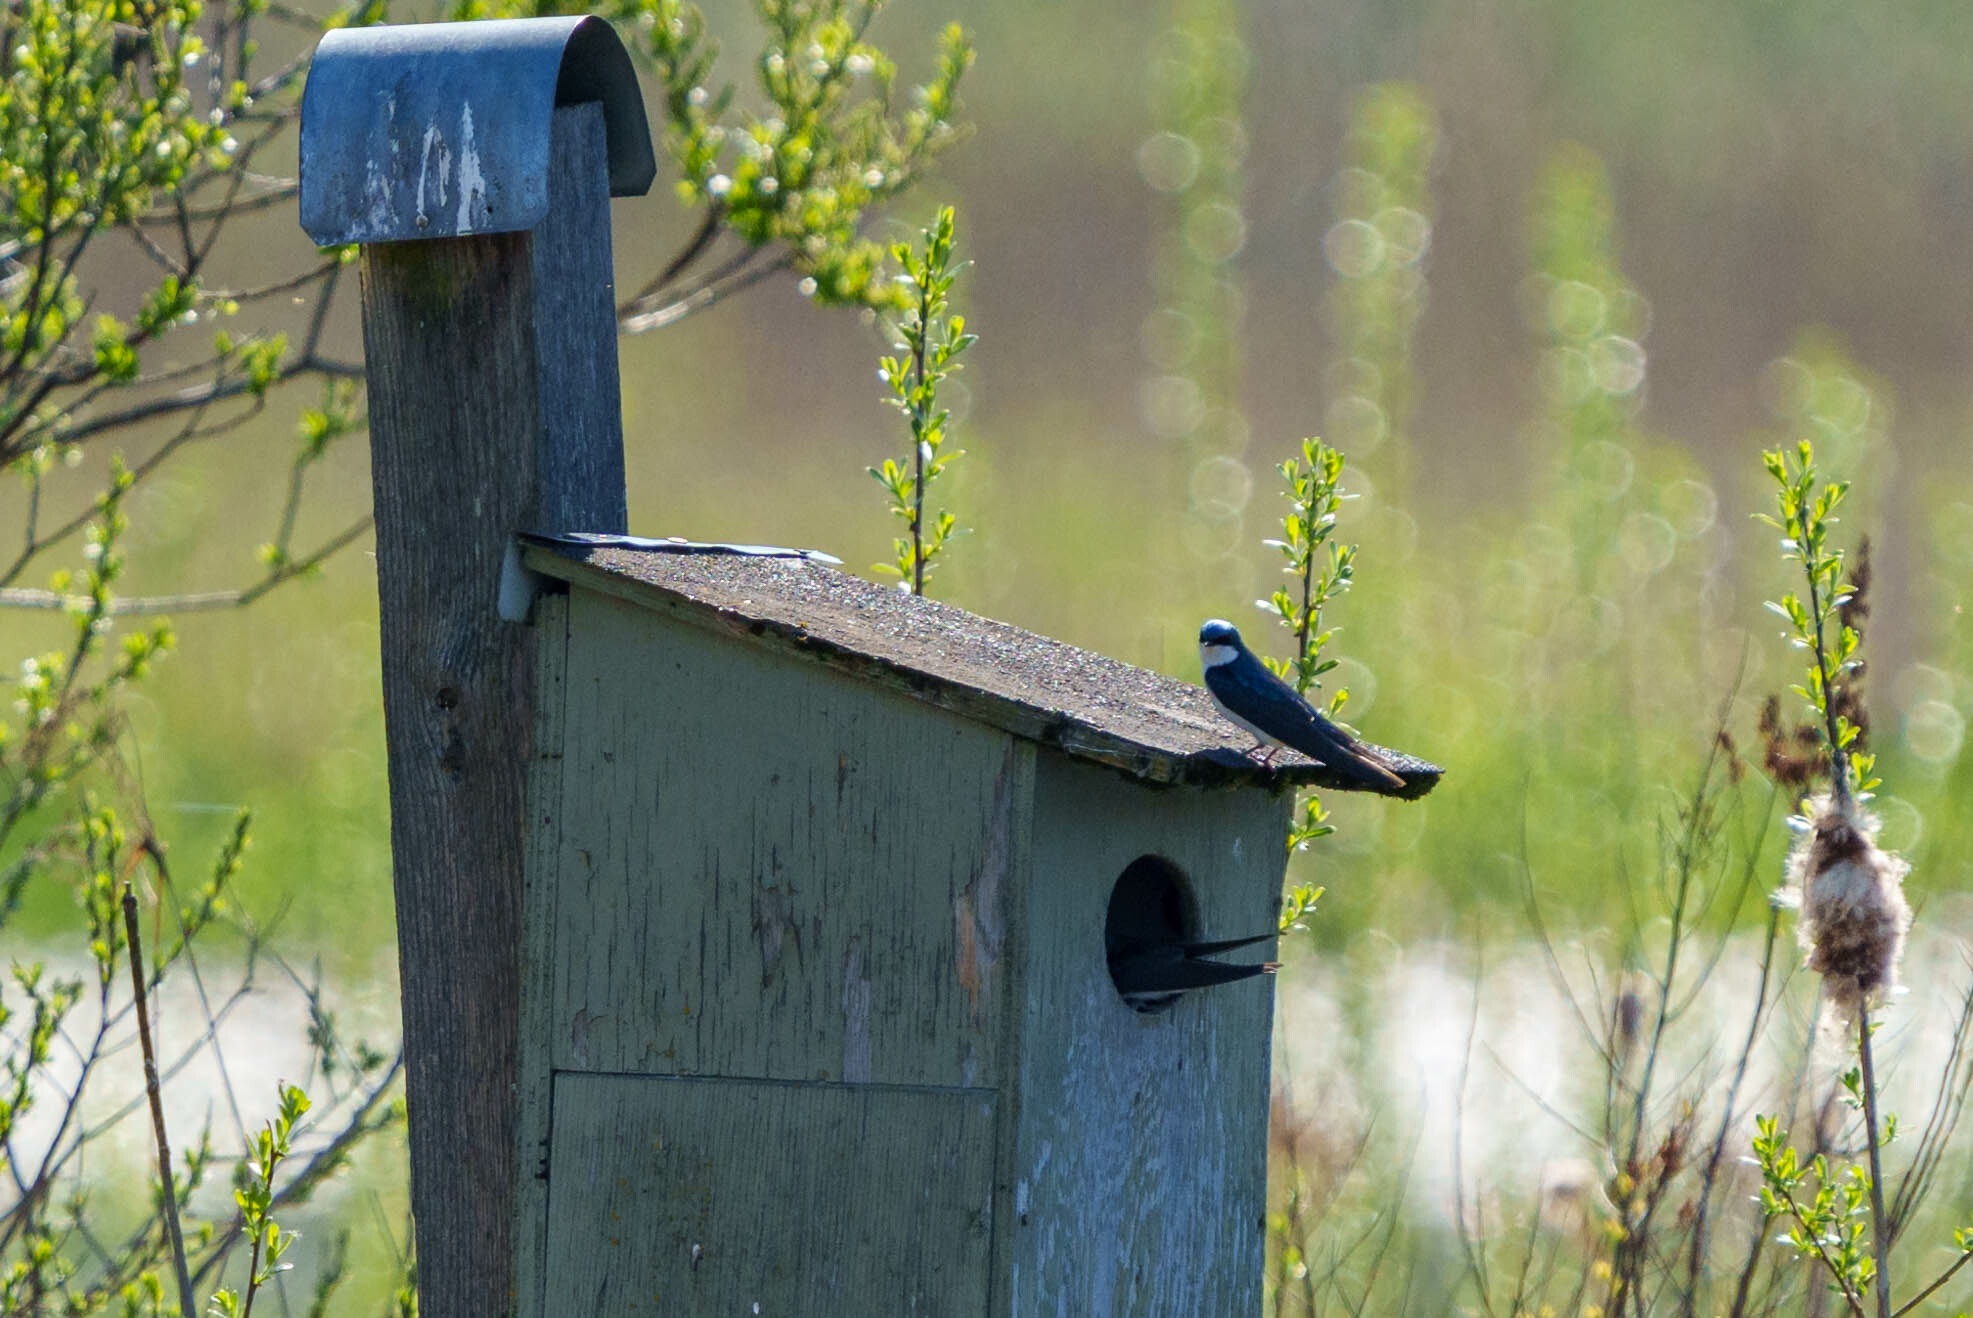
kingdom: Animalia
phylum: Chordata
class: Aves
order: Passeriformes
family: Hirundinidae
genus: Tachycineta
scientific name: Tachycineta bicolor
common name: Tree swallow
